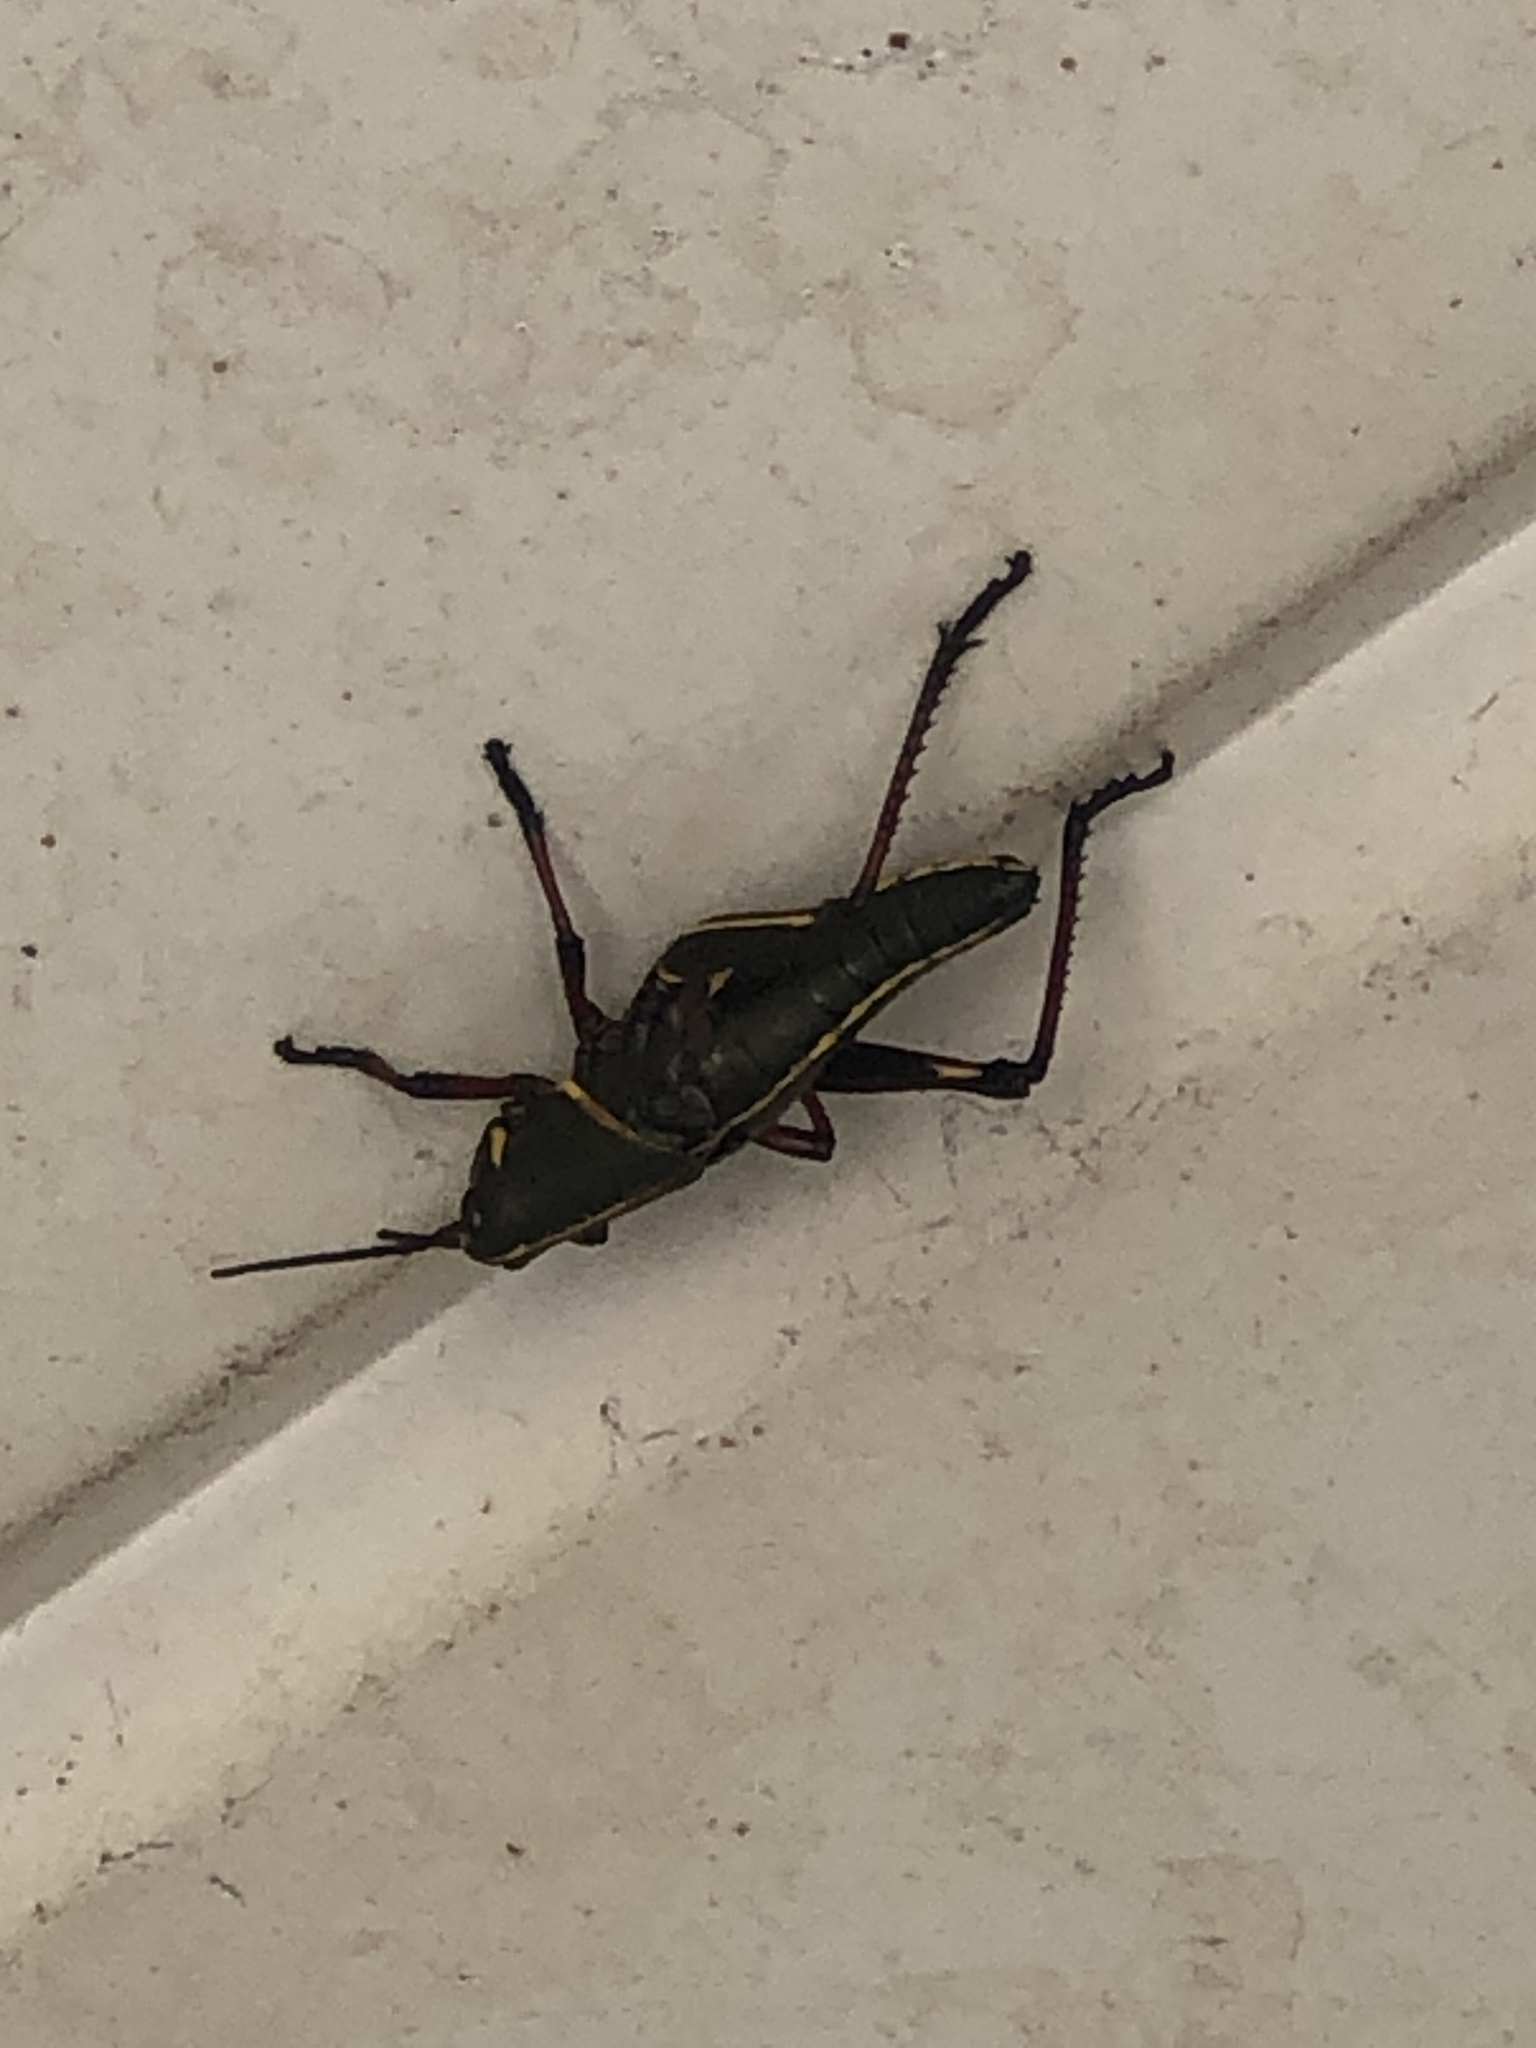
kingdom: Animalia
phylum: Arthropoda
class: Insecta
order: Orthoptera
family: Romaleidae
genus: Romalea
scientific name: Romalea microptera
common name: Eastern lubber grasshopper
